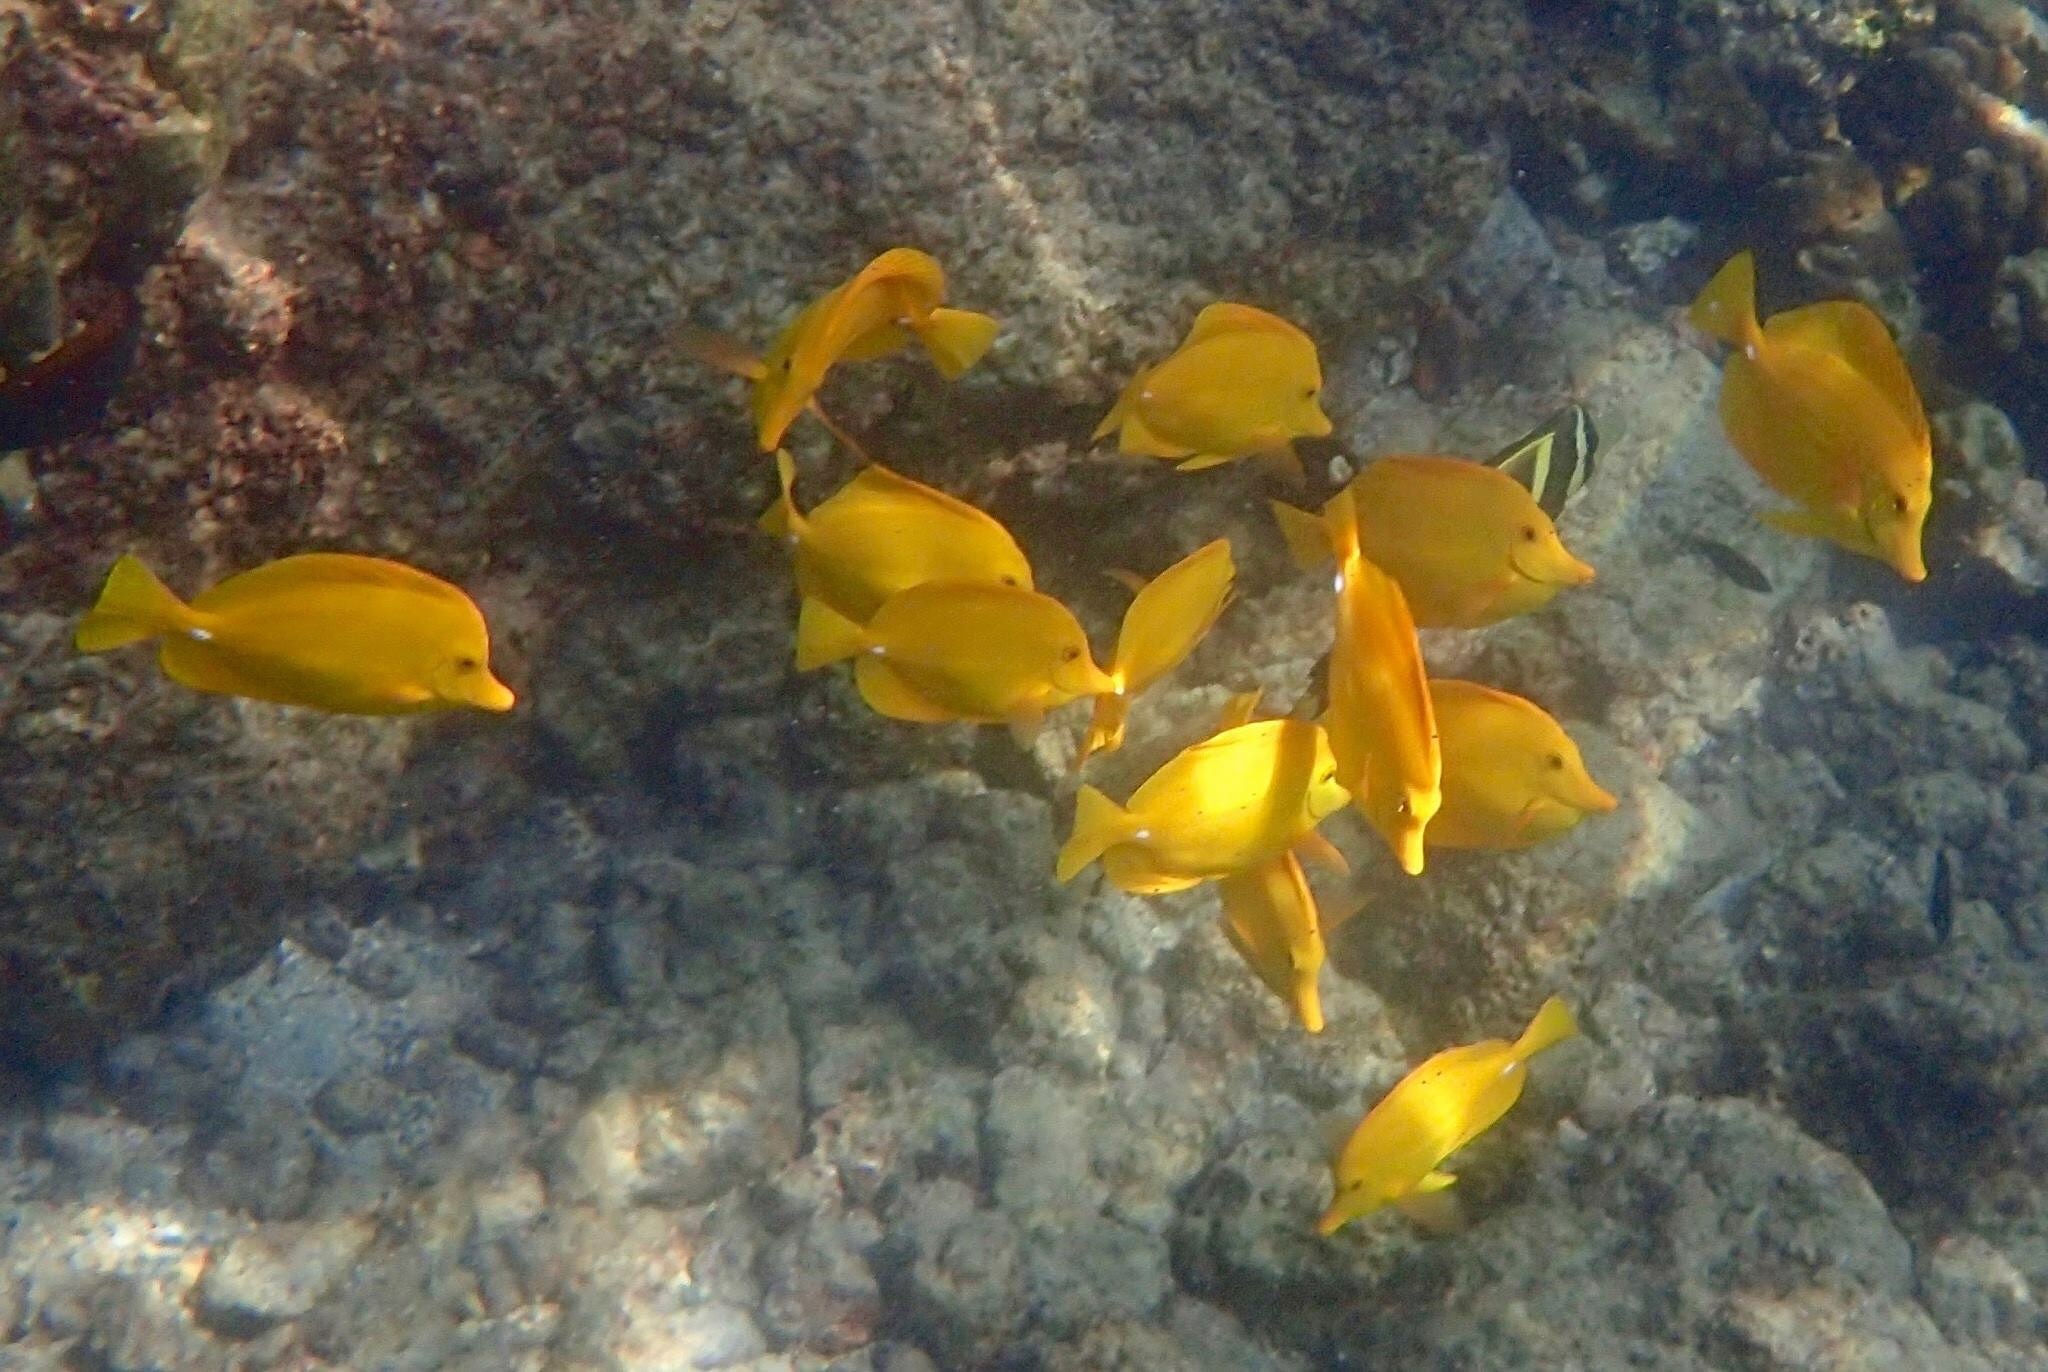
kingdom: Animalia
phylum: Chordata
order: Perciformes
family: Acanthuridae
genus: Zebrasoma
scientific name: Zebrasoma flavescens
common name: Yellow tang
